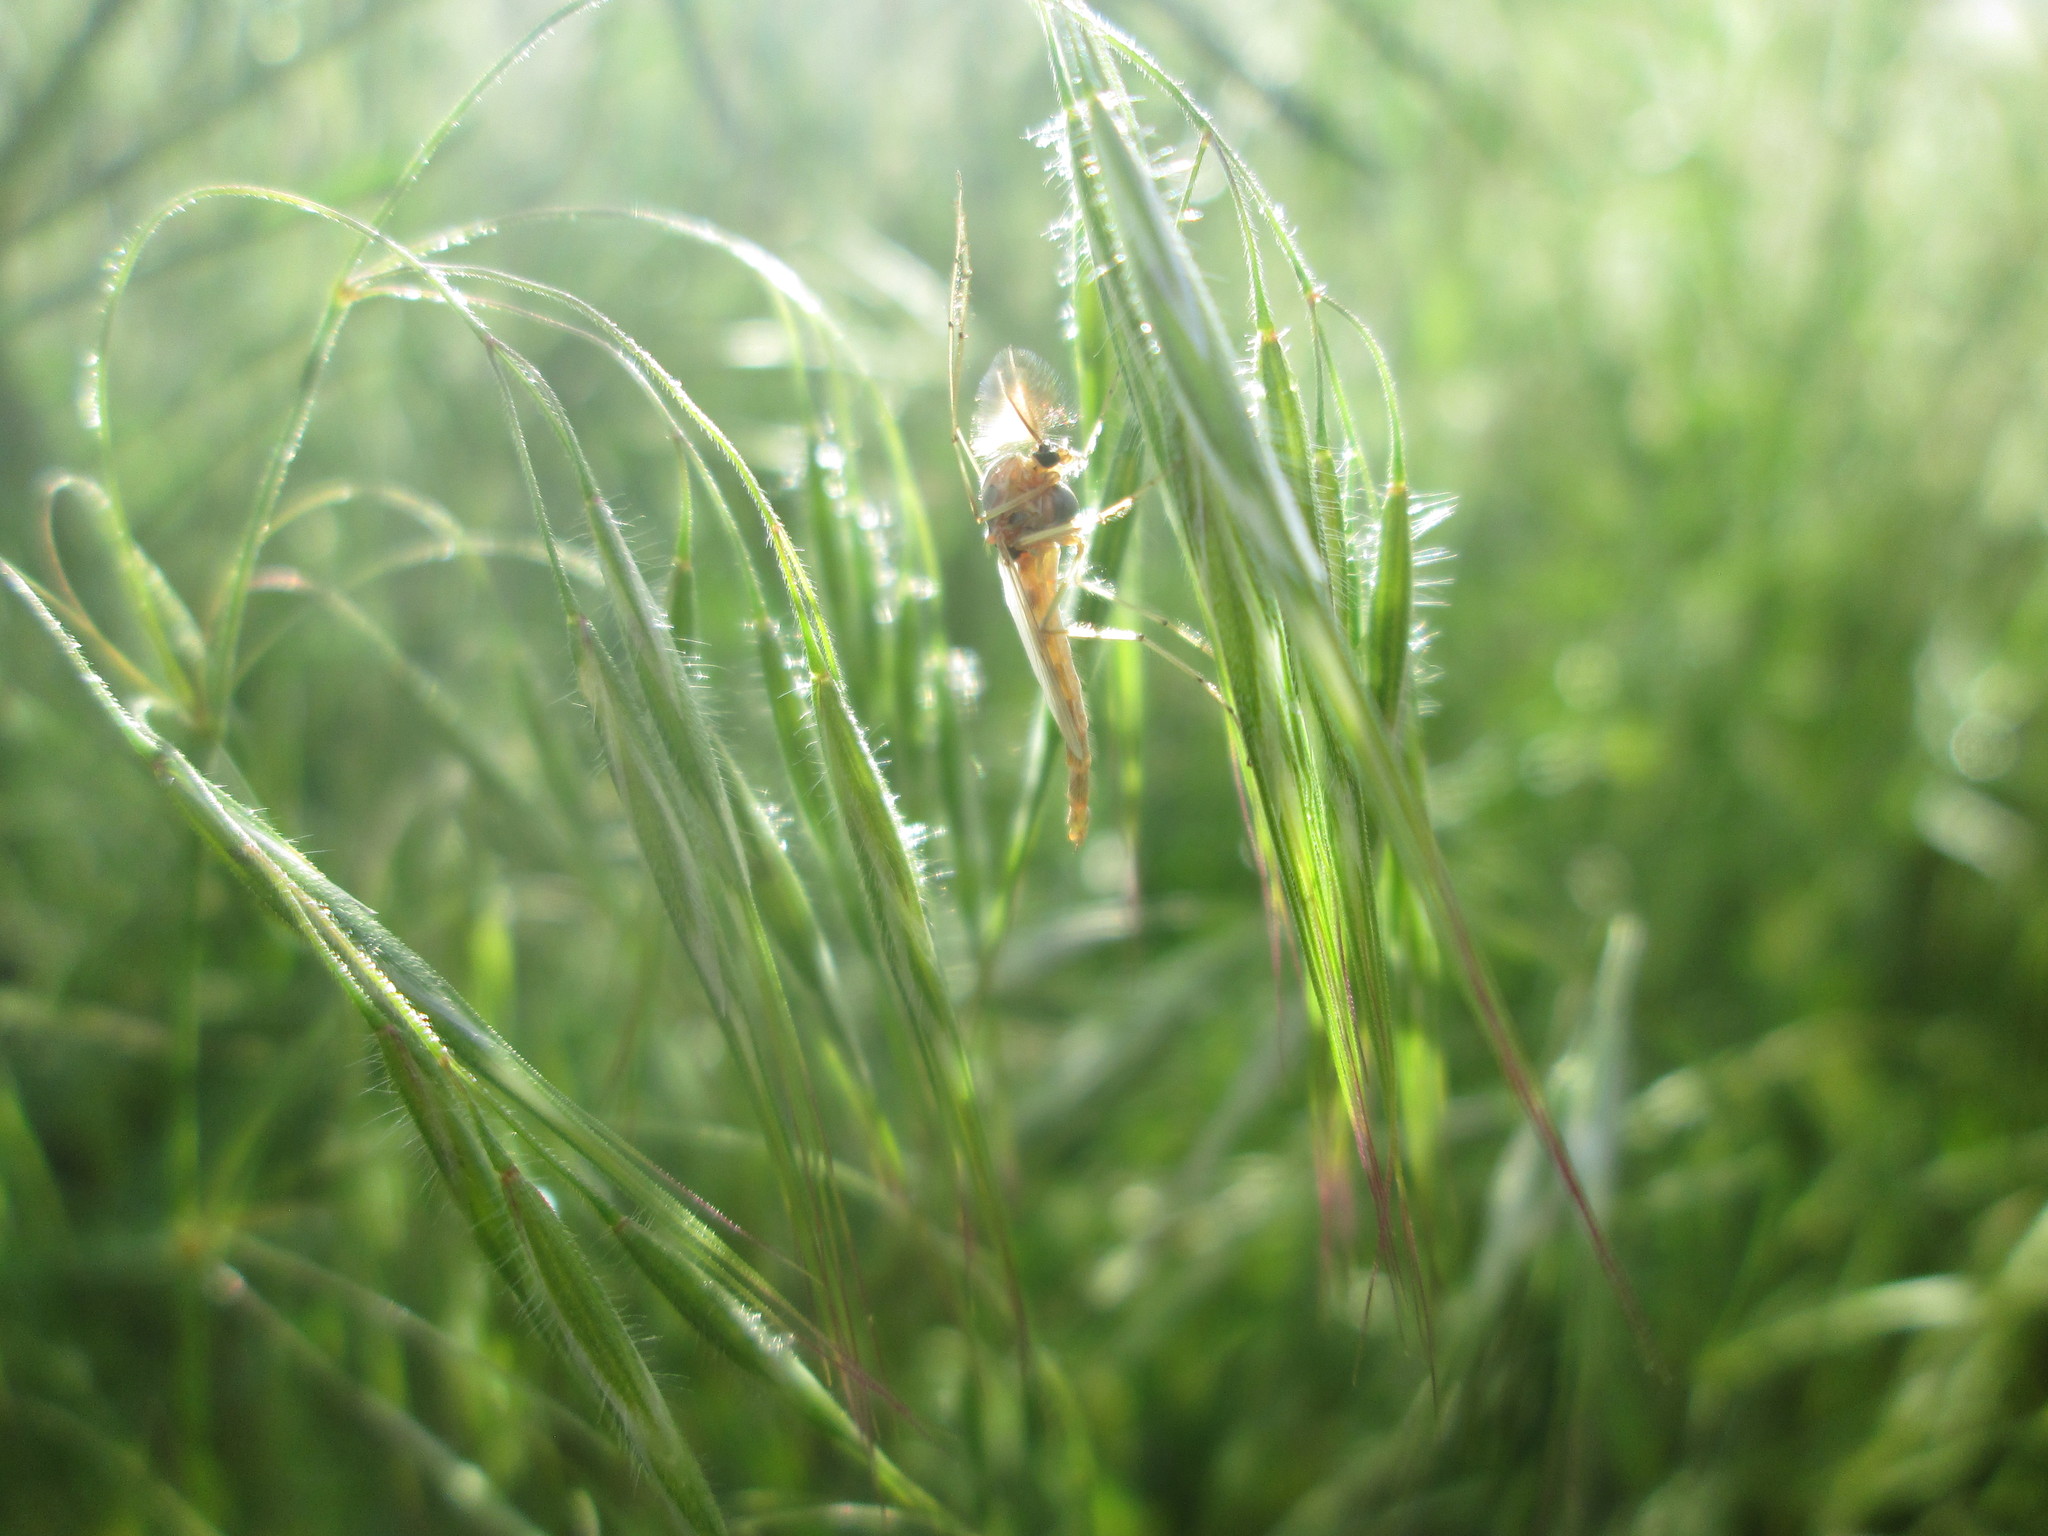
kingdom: Plantae
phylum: Tracheophyta
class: Liliopsida
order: Poales
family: Poaceae
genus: Bromus
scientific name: Bromus tectorum
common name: Cheatgrass
